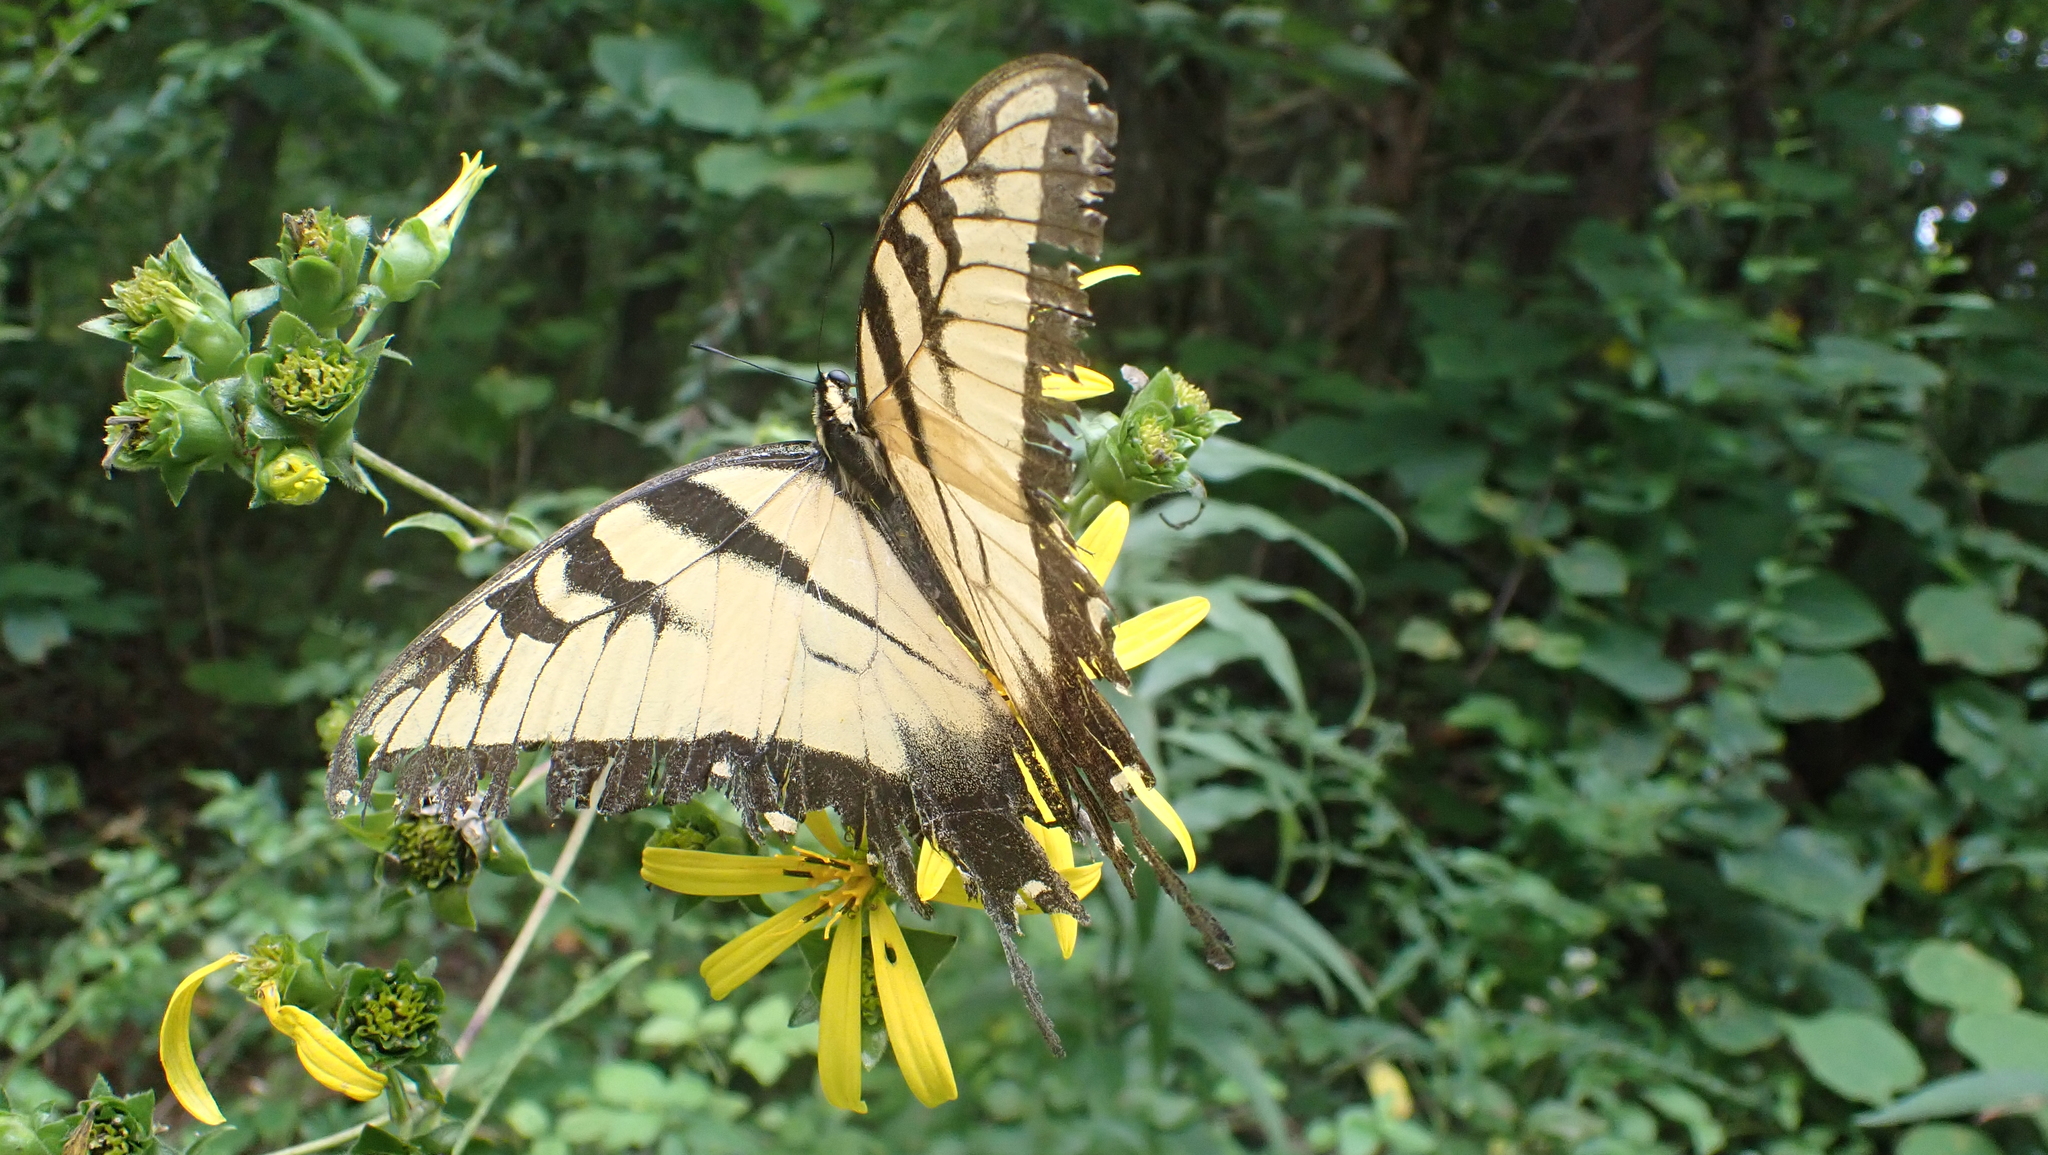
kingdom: Animalia
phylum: Arthropoda
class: Insecta
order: Lepidoptera
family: Papilionidae
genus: Papilio
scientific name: Papilio glaucus
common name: Tiger swallowtail
